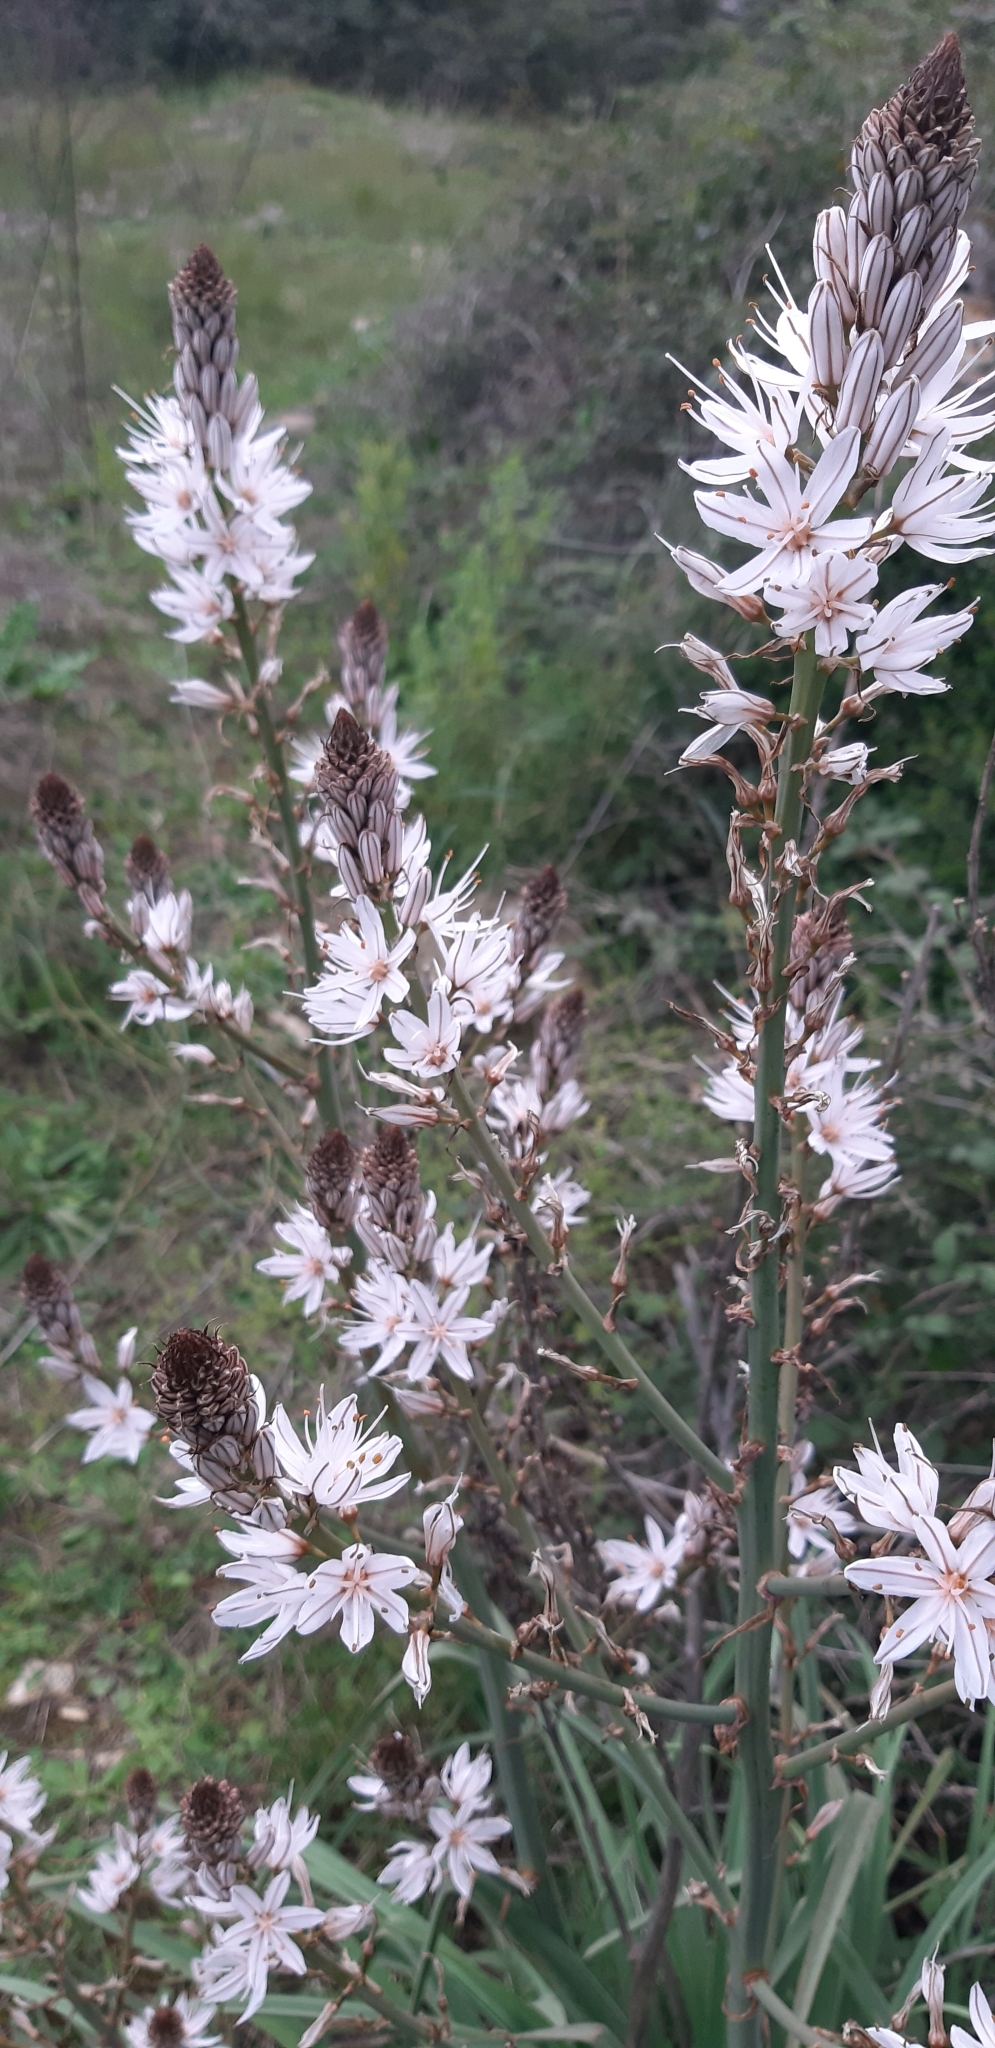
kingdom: Plantae
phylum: Tracheophyta
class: Liliopsida
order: Asparagales
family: Asphodelaceae
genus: Asphodelus
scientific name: Asphodelus ramosus
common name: Silverrod
